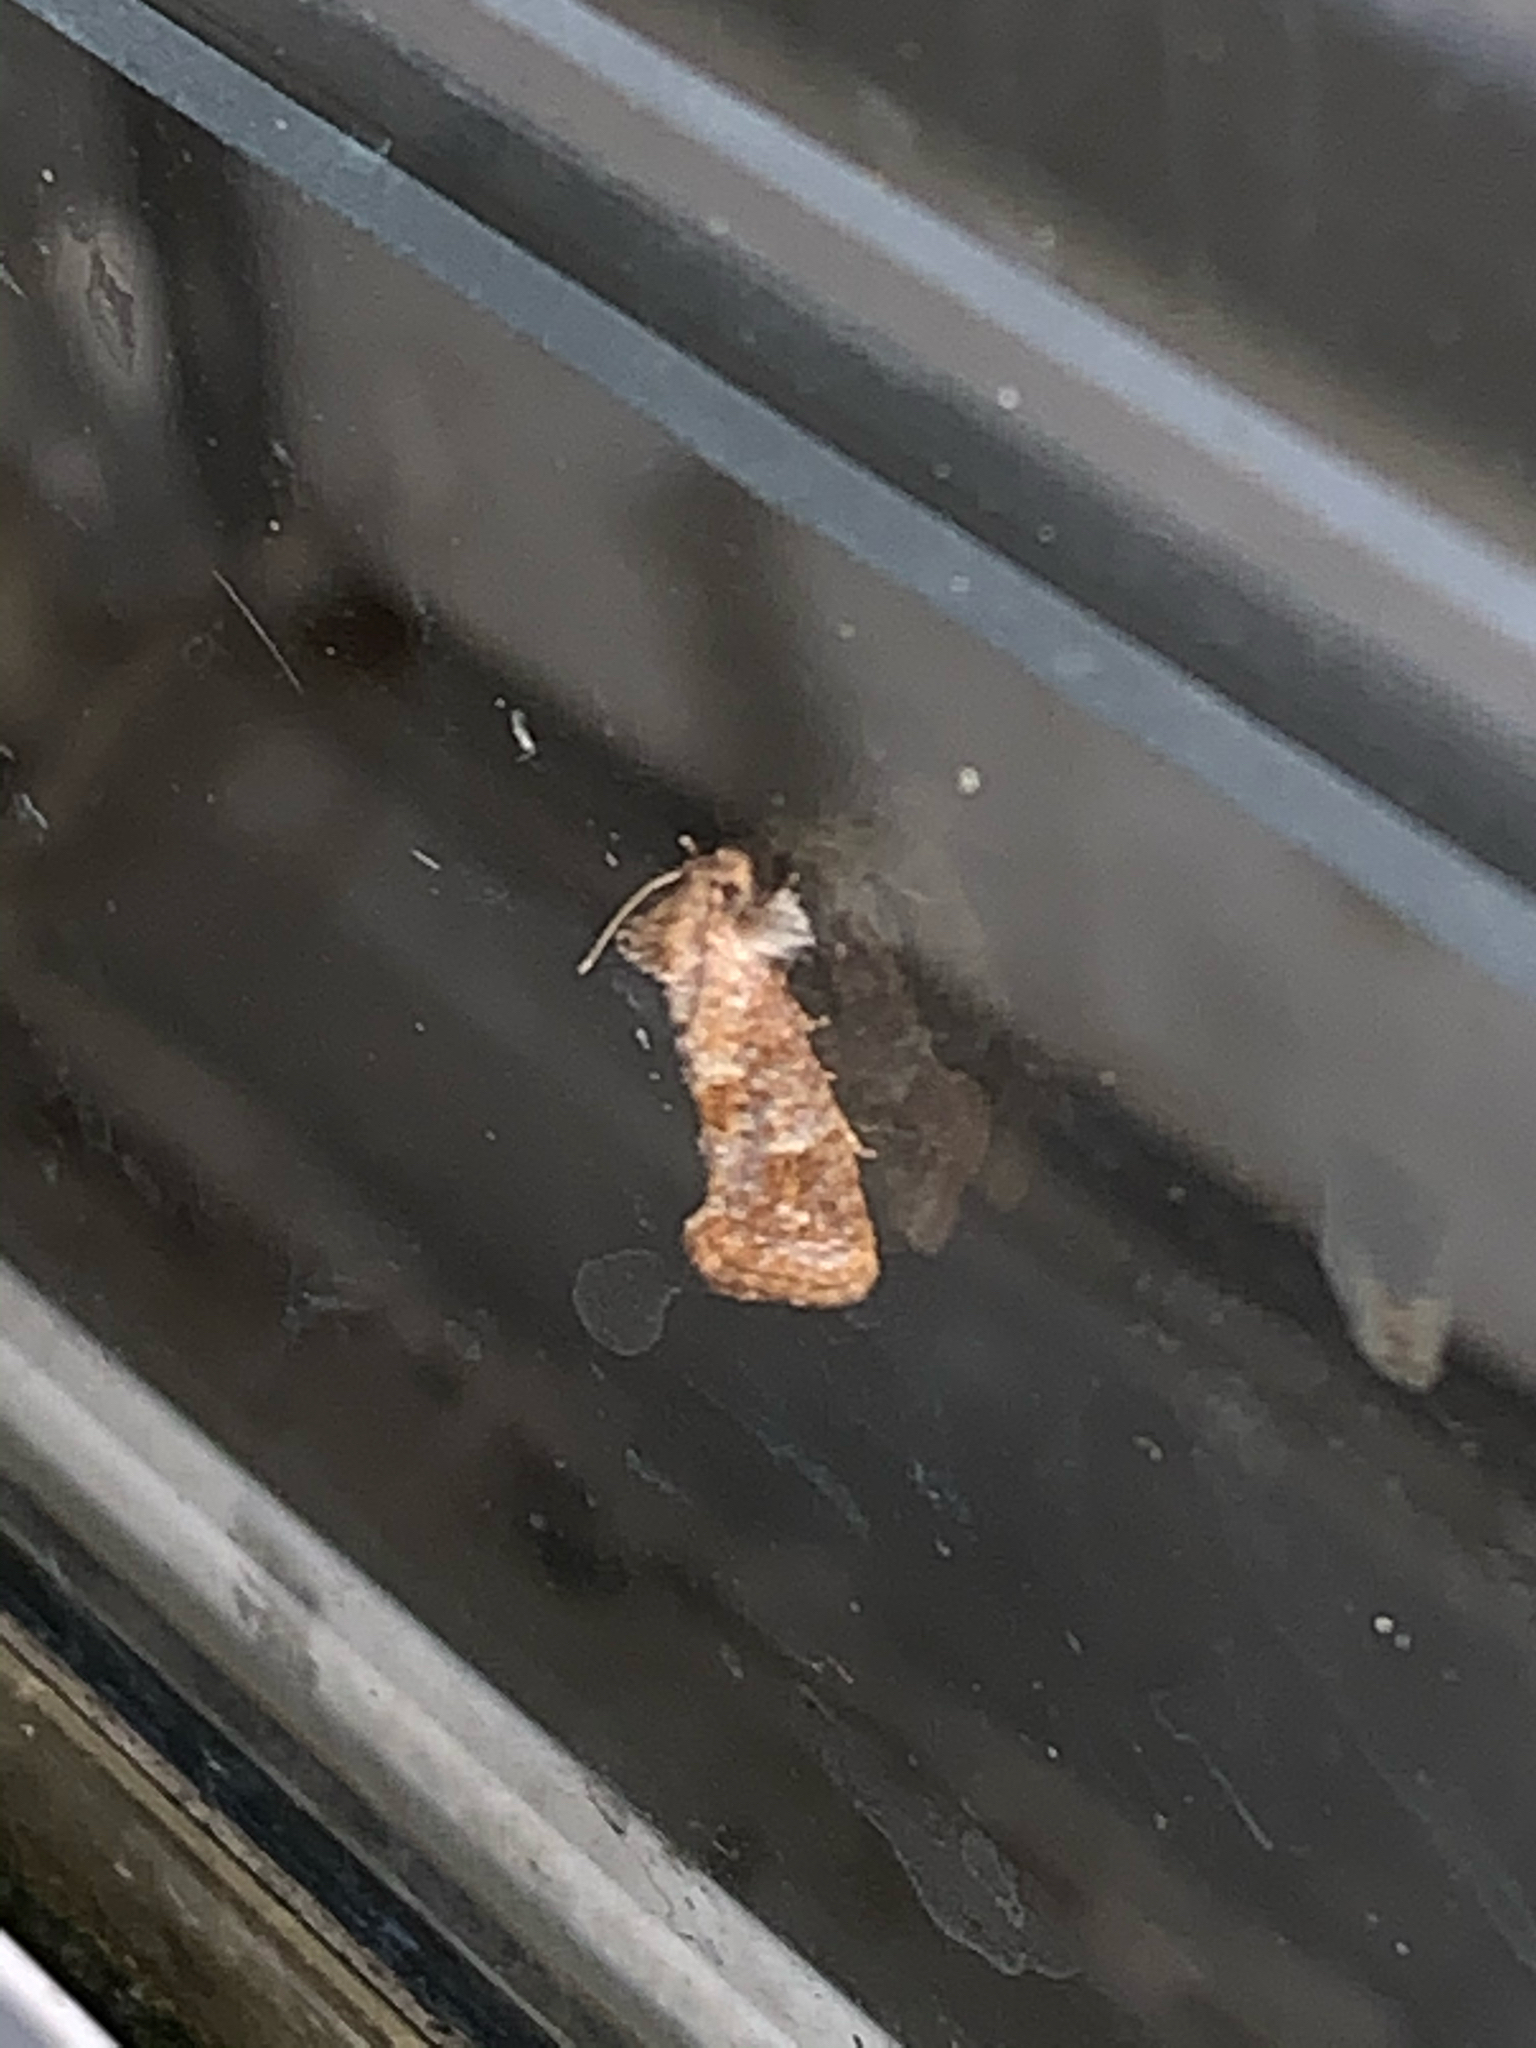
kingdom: Animalia
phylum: Arthropoda
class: Insecta
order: Lepidoptera
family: Tineidae
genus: Acrolophus
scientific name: Acrolophus panamae
